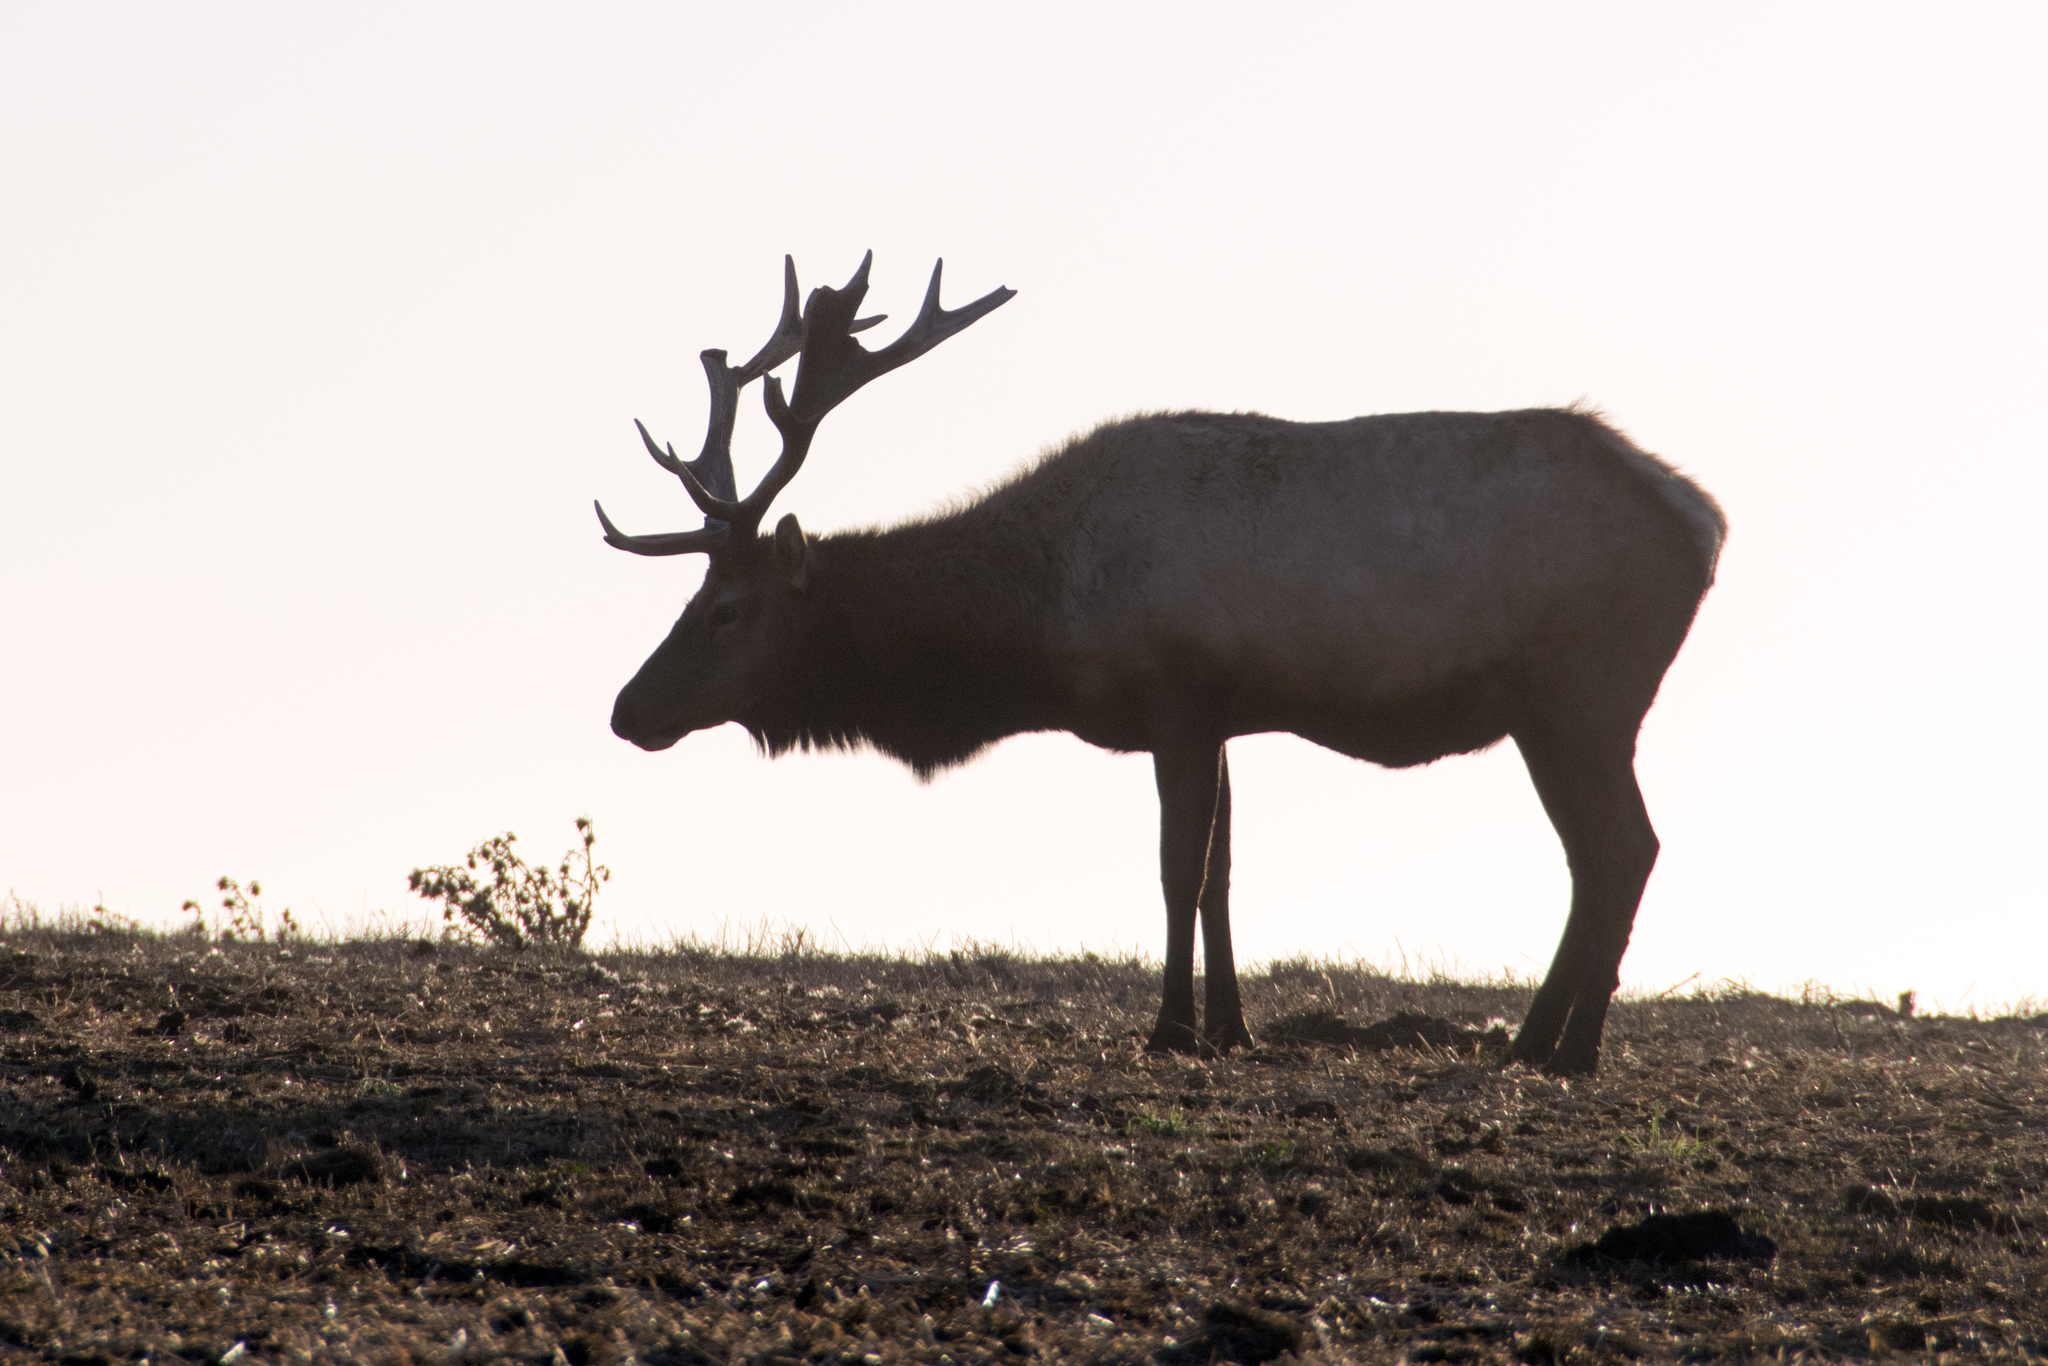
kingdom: Animalia
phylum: Chordata
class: Mammalia
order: Artiodactyla
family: Cervidae
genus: Cervus
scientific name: Cervus elaphus
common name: Red deer
